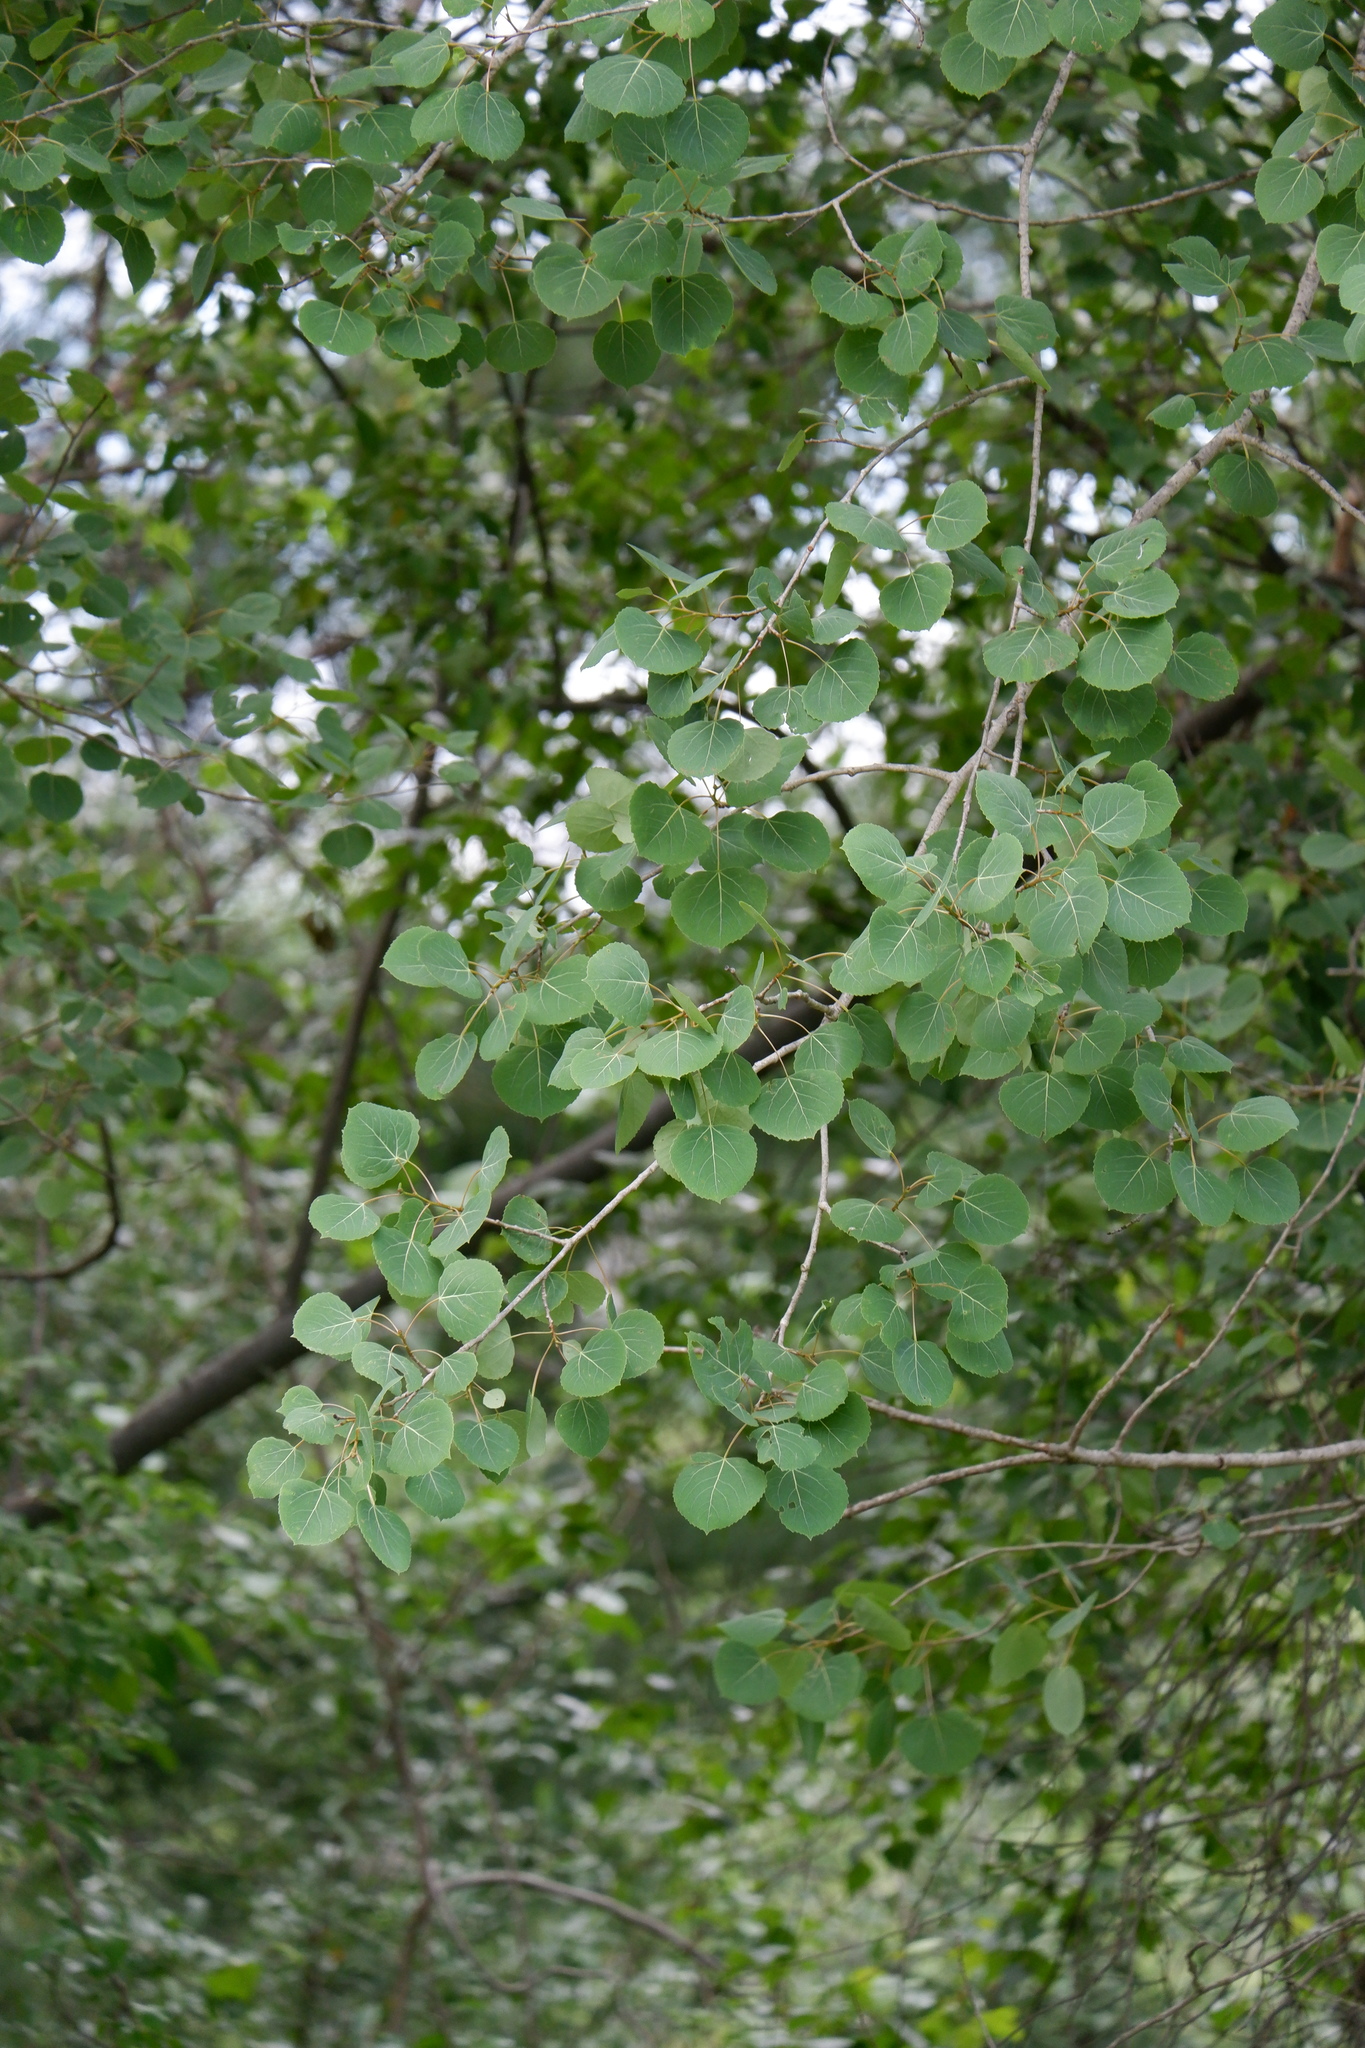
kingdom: Plantae
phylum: Tracheophyta
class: Magnoliopsida
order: Malpighiales
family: Salicaceae
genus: Populus
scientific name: Populus tremuloides
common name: Quaking aspen
